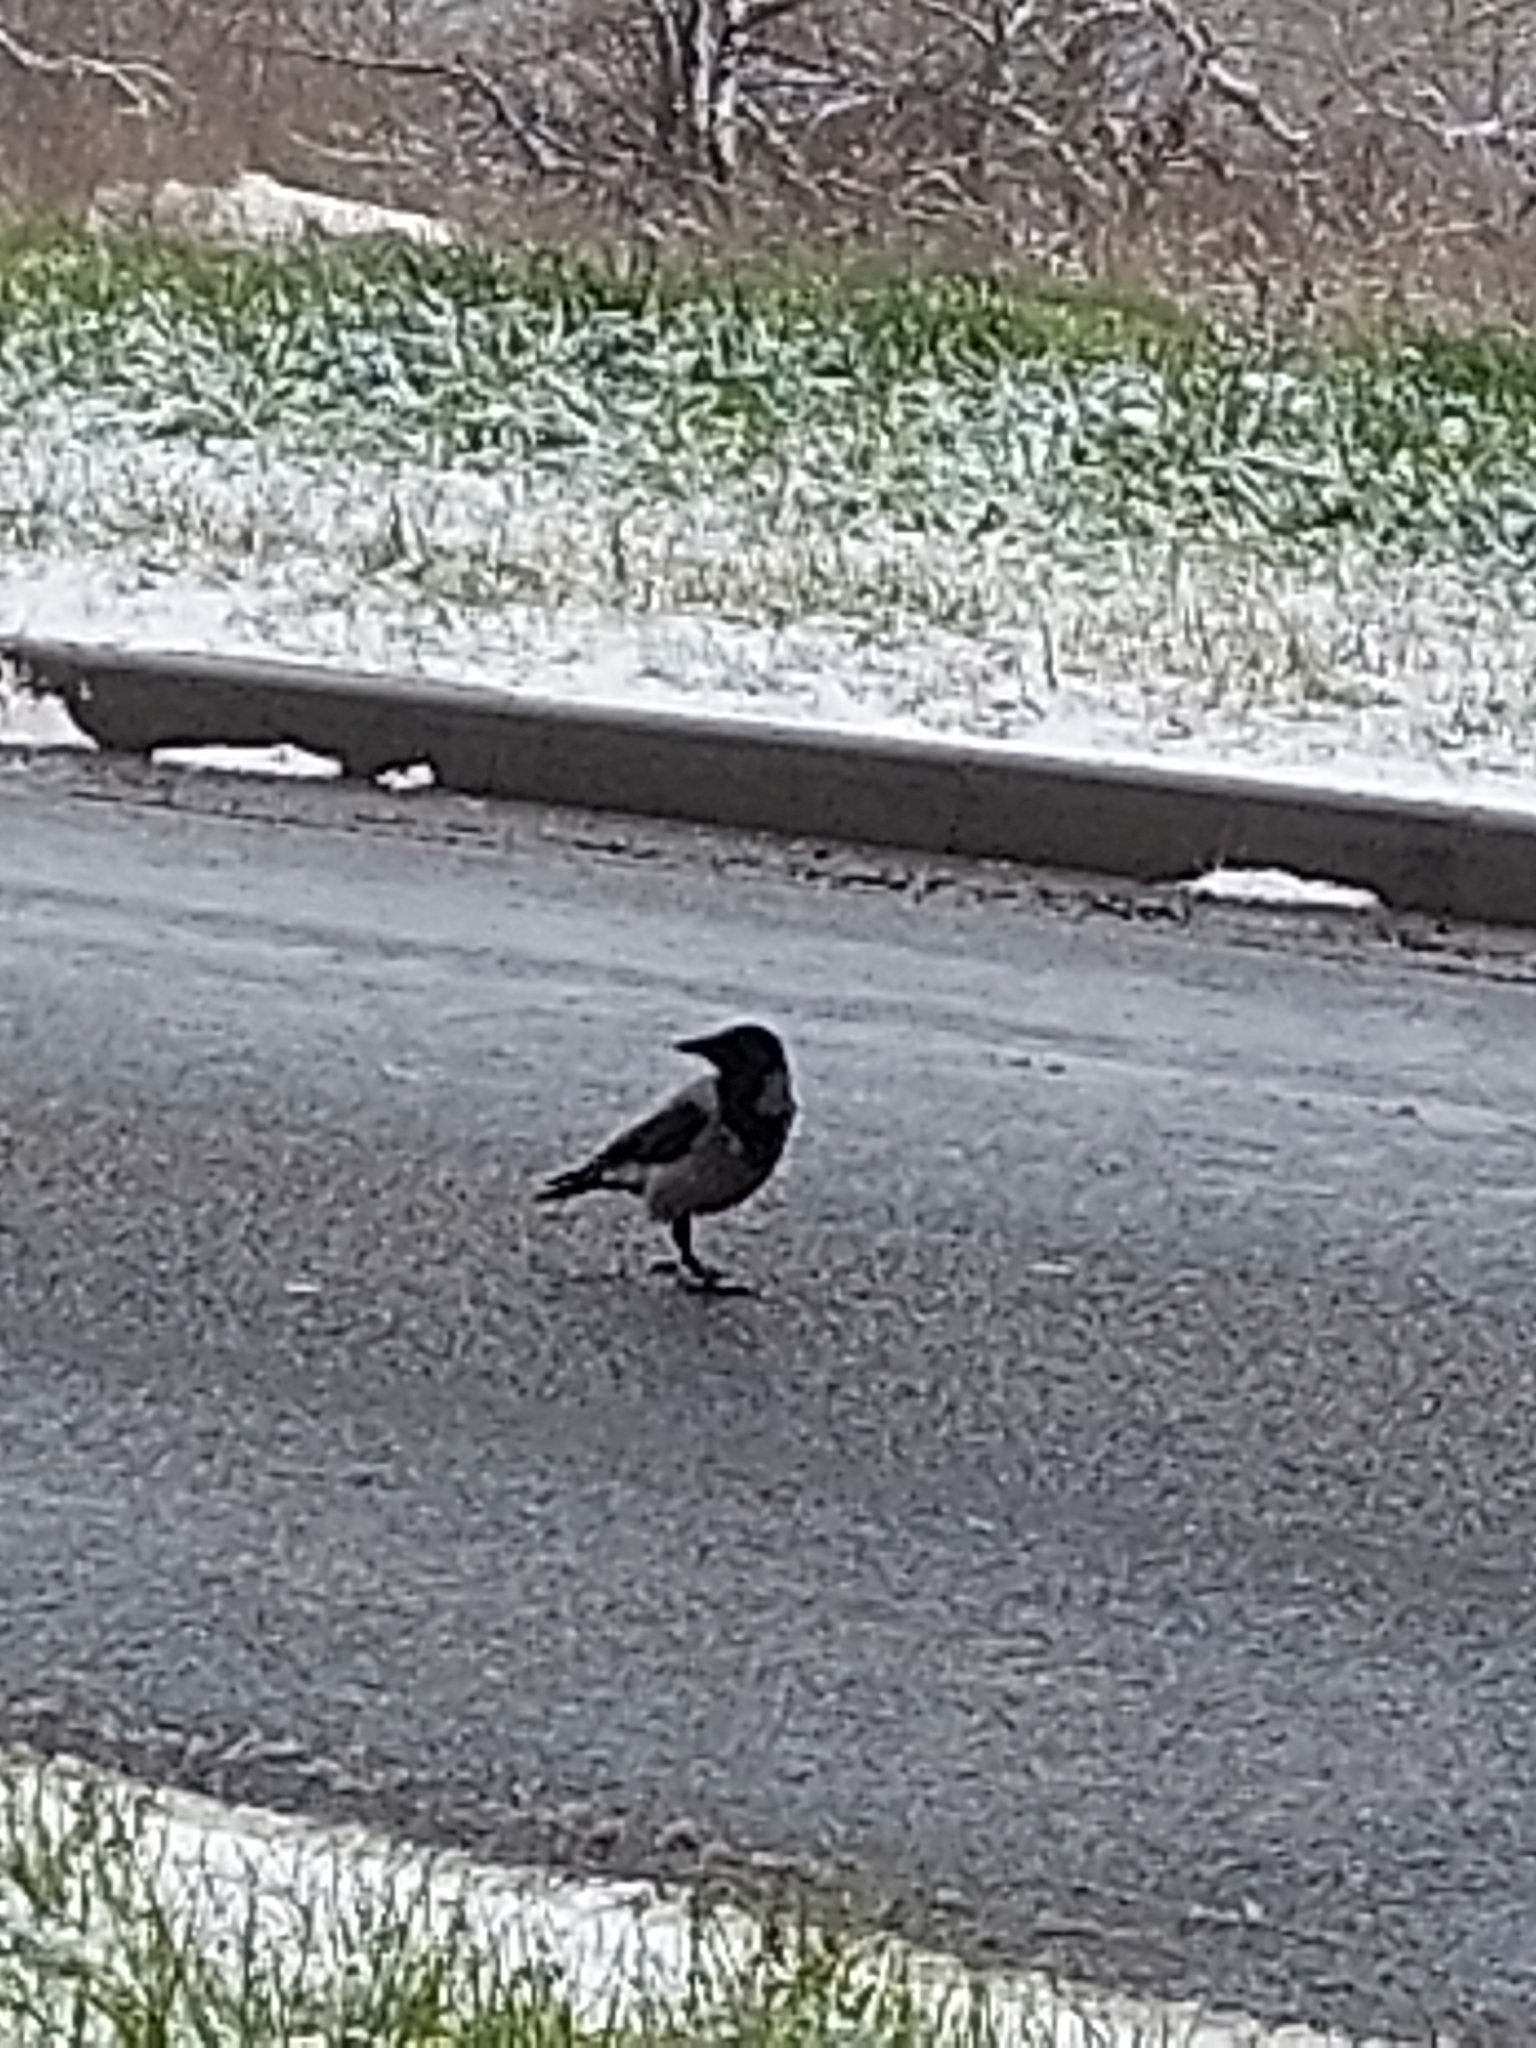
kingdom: Animalia
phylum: Chordata
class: Aves
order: Passeriformes
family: Corvidae
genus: Corvus
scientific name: Corvus cornix
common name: Hooded crow
